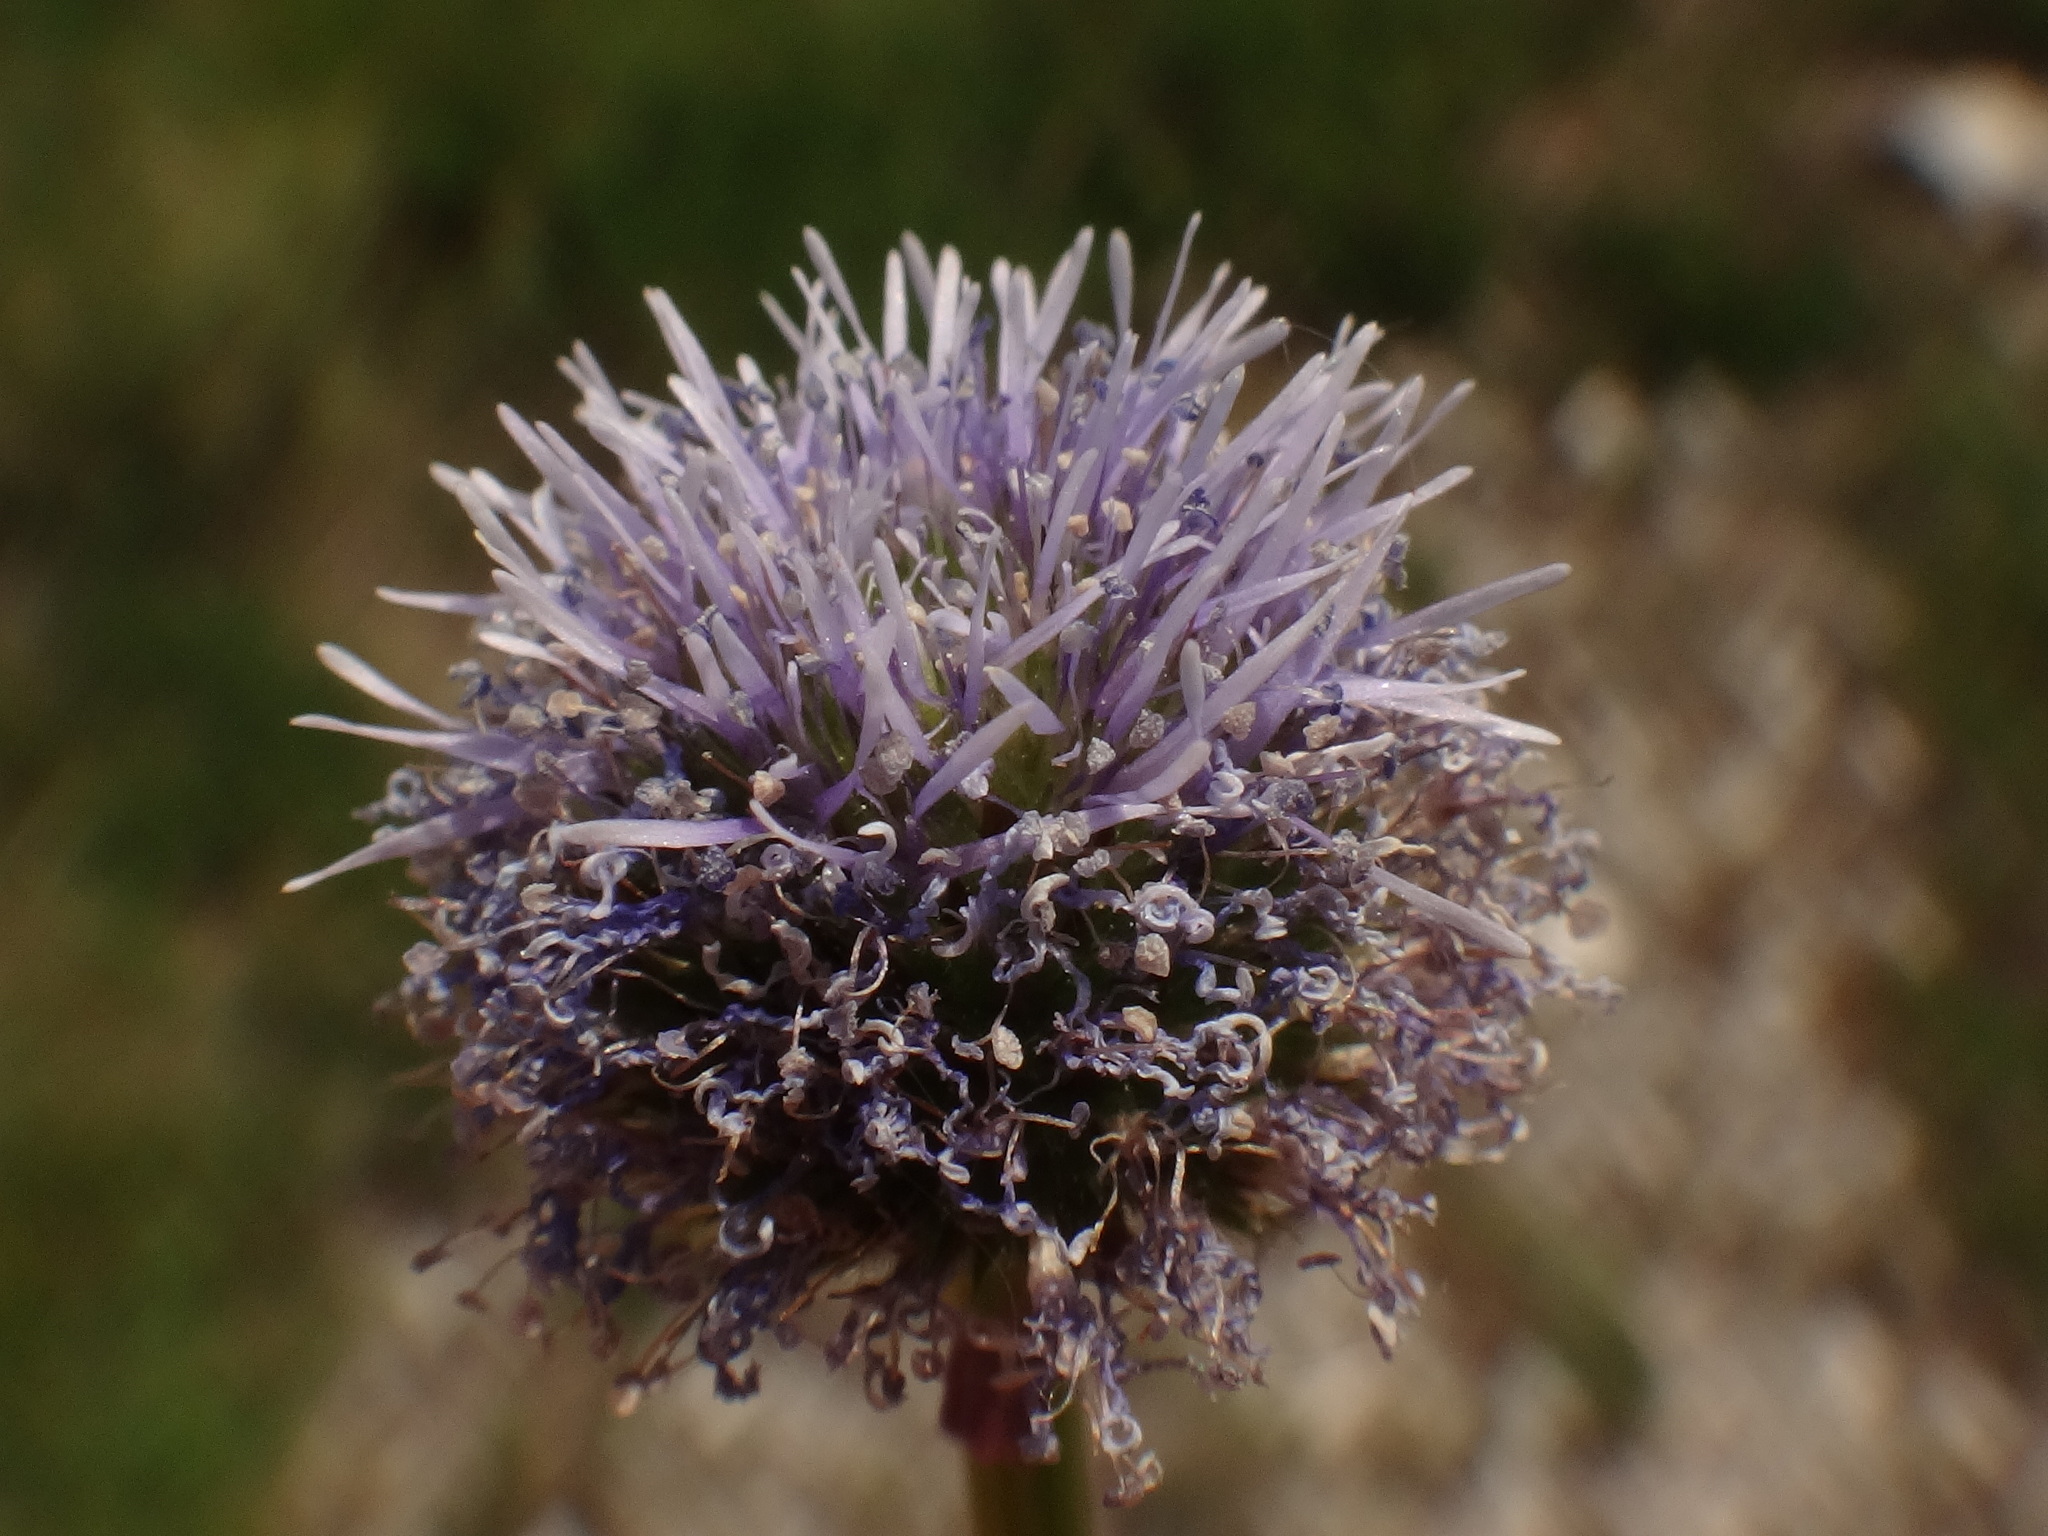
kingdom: Plantae
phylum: Tracheophyta
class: Magnoliopsida
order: Lamiales
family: Plantaginaceae
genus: Globularia
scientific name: Globularia bisnagarica
